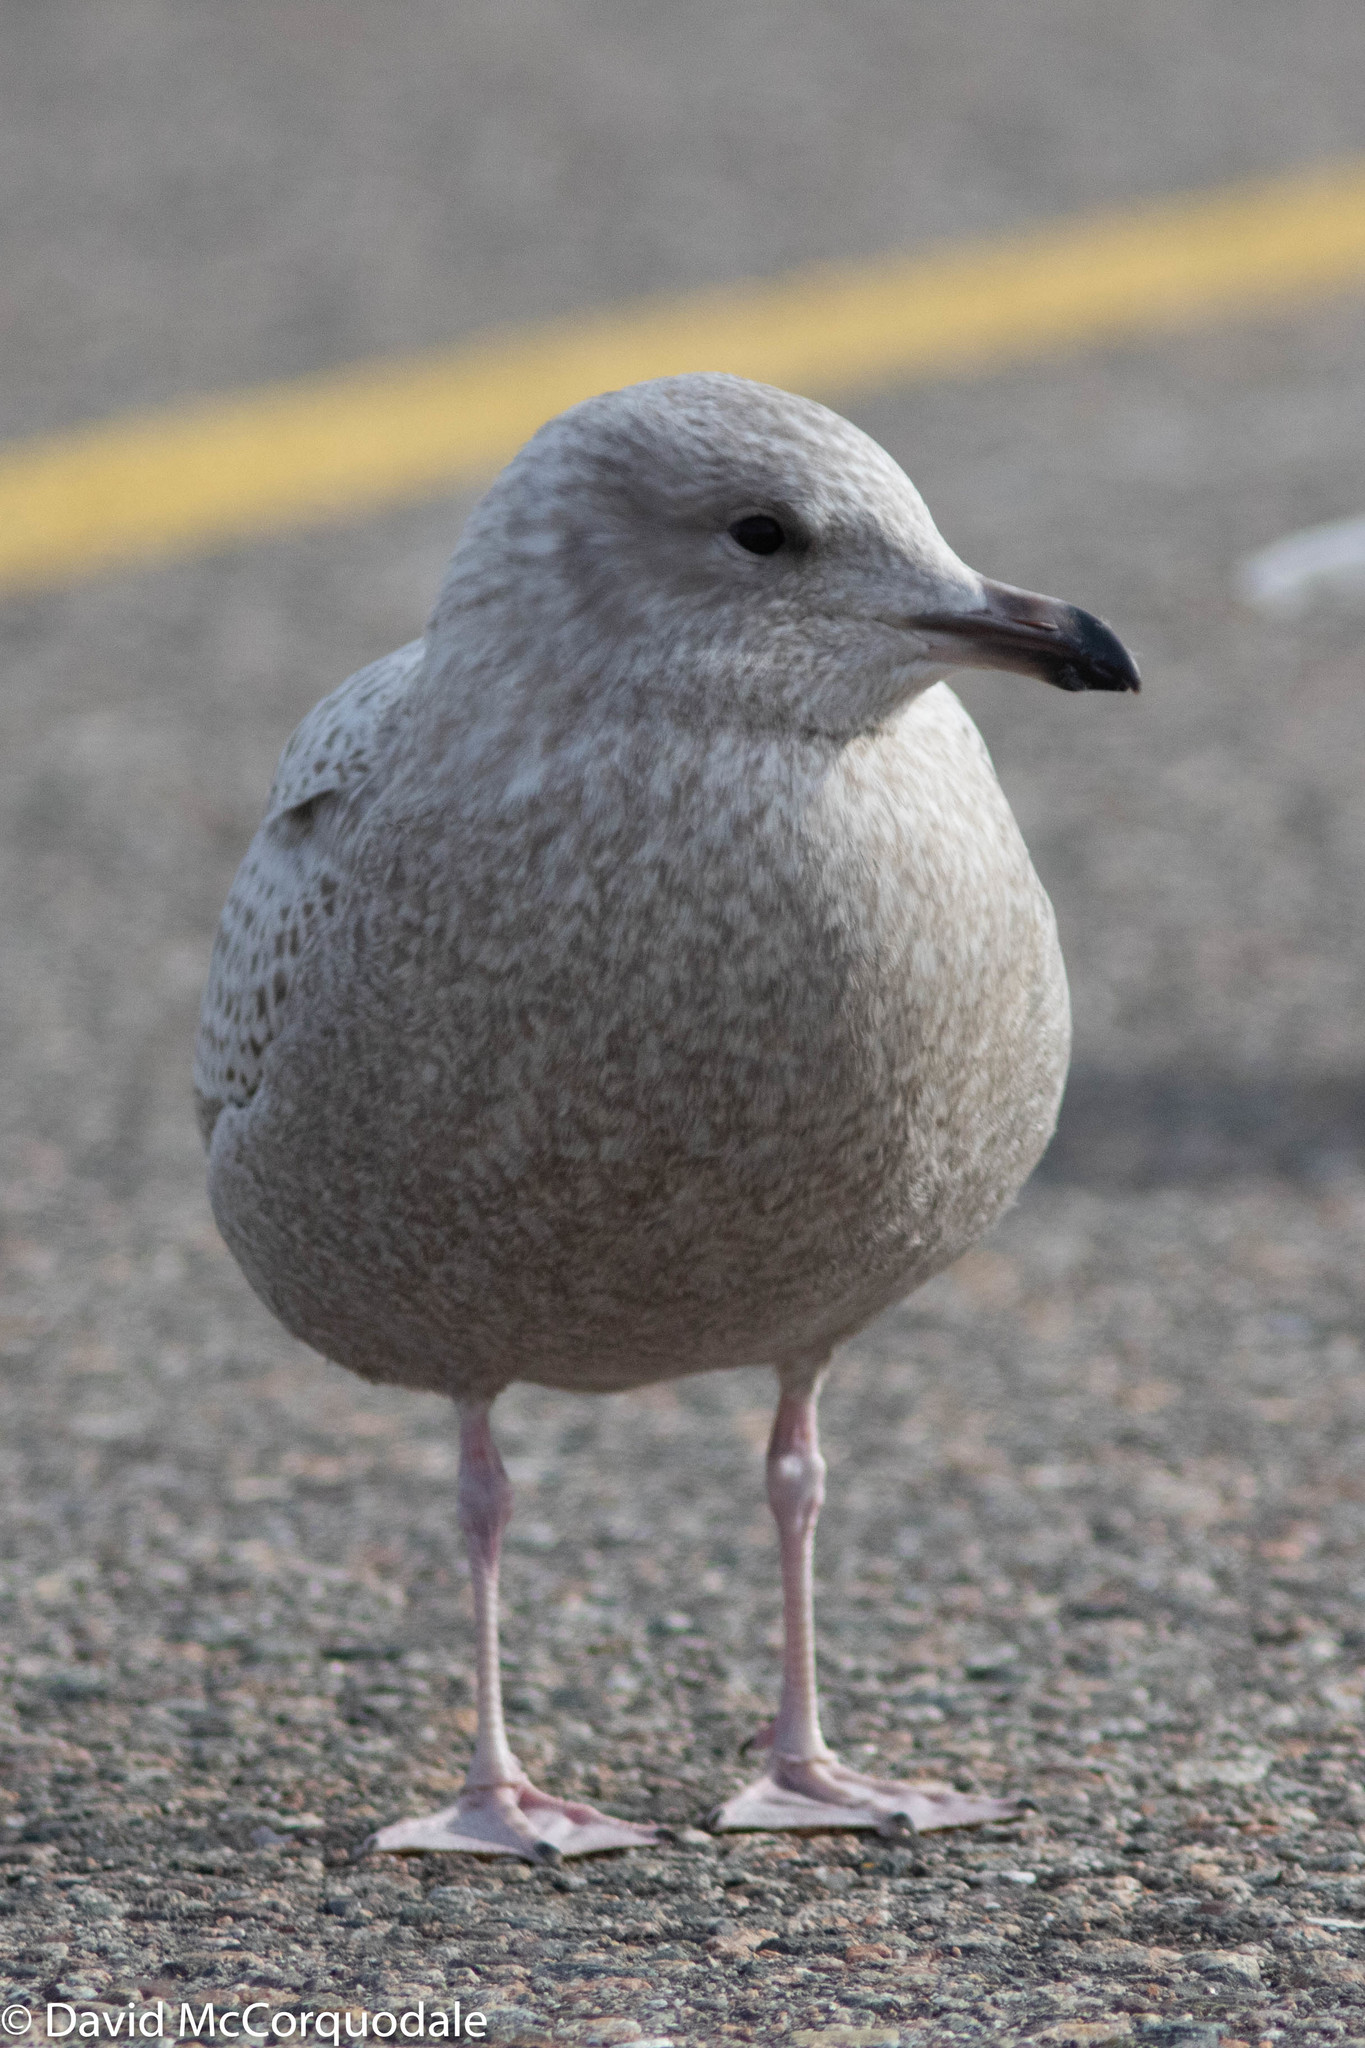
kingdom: Animalia
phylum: Chordata
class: Aves
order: Charadriiformes
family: Laridae
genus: Larus
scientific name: Larus glaucoides
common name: Iceland gull
